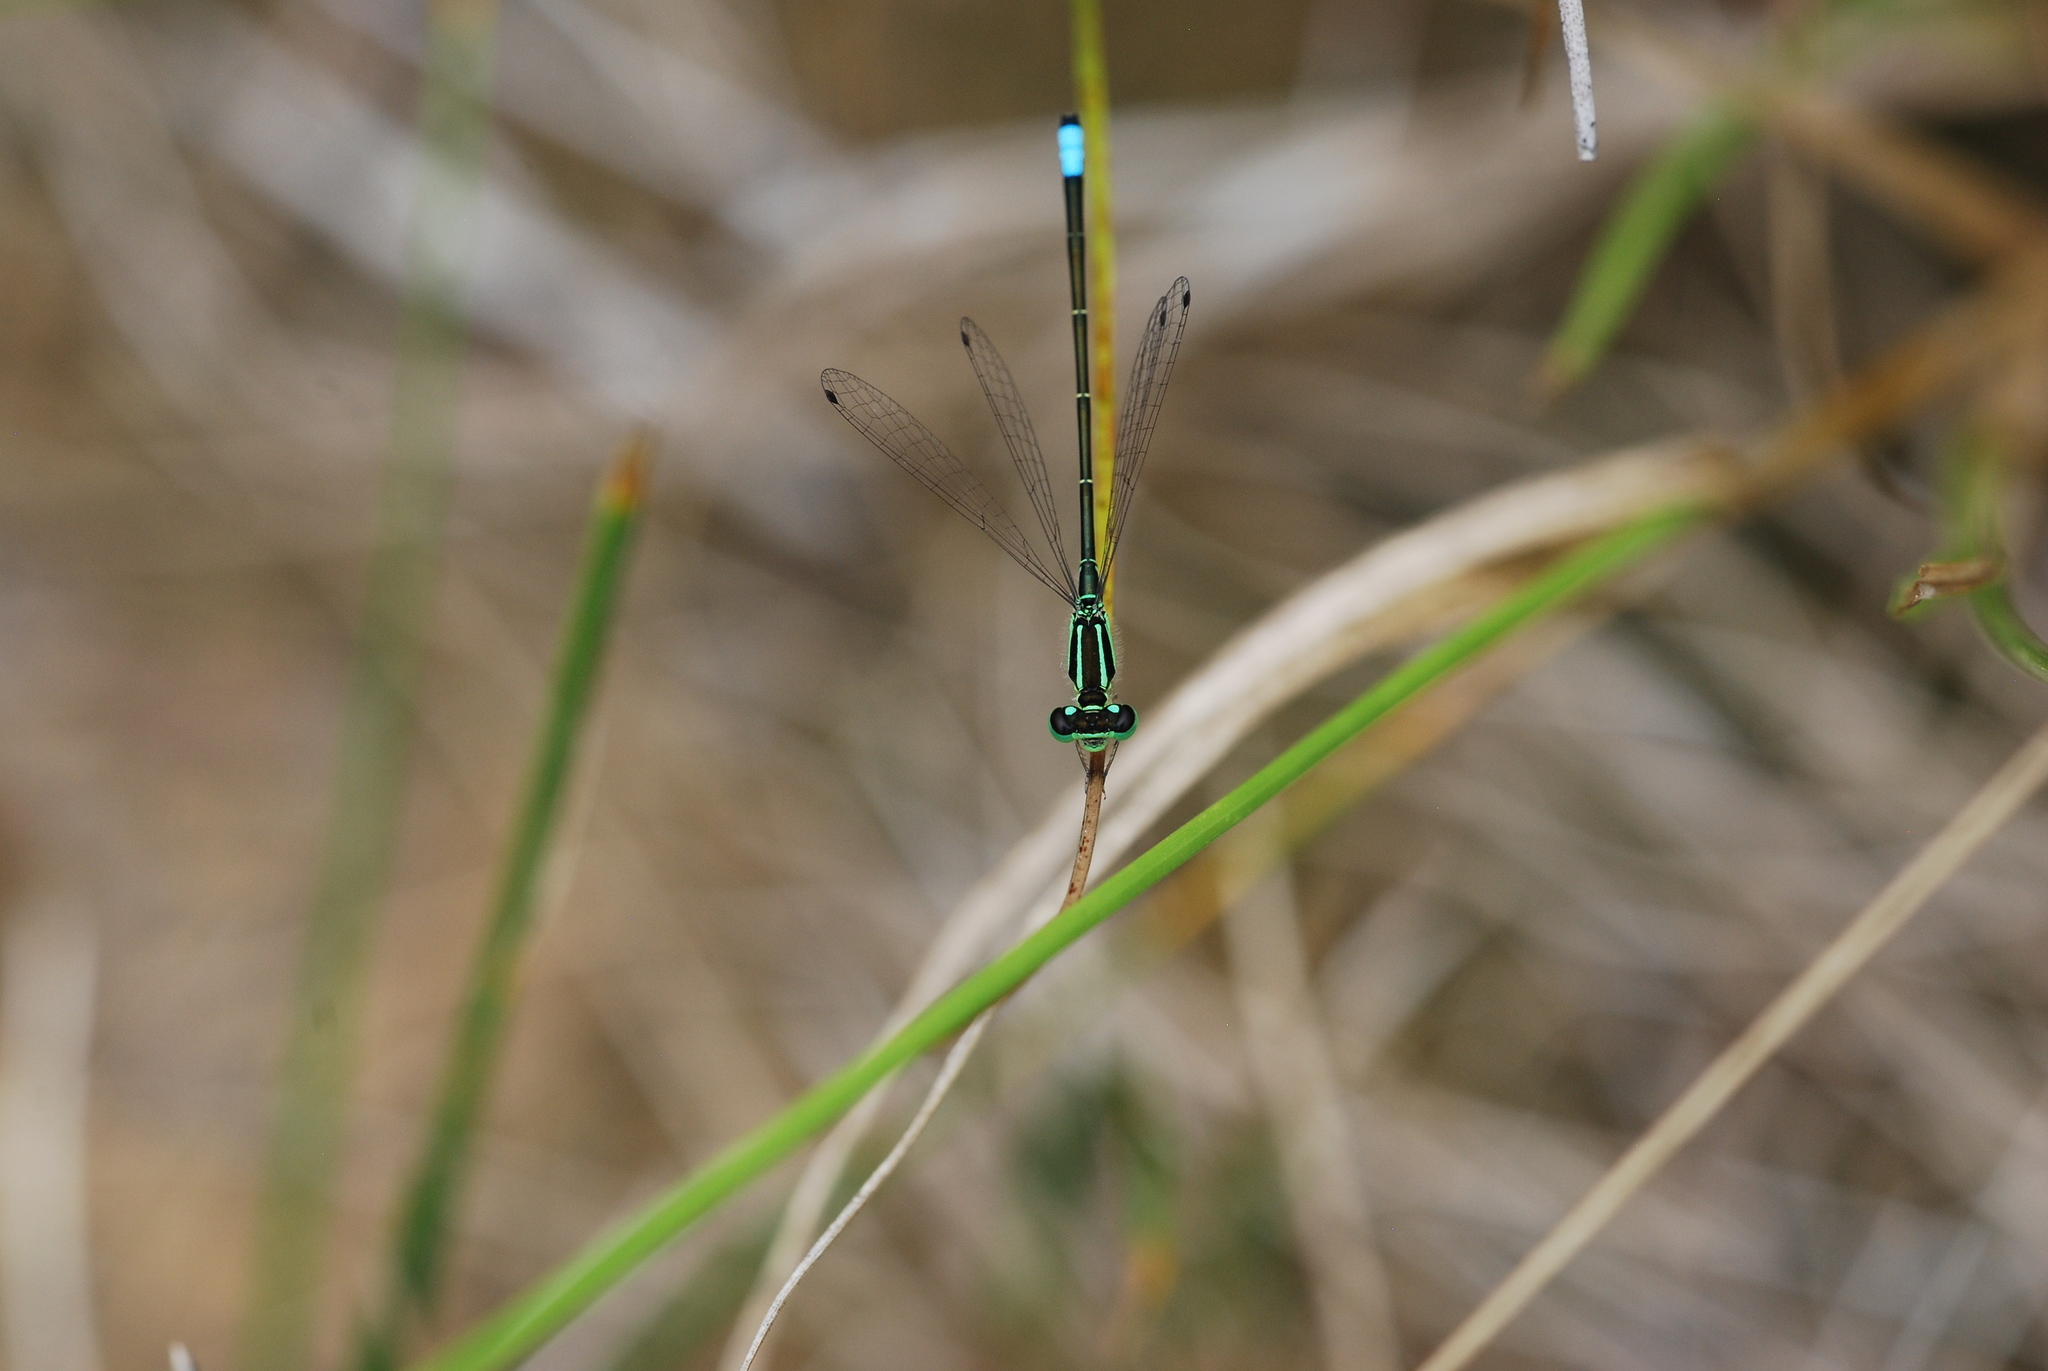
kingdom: Animalia
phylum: Arthropoda
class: Insecta
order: Odonata
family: Coenagrionidae
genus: Ischnura
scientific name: Ischnura verticalis
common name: Eastern forktail
